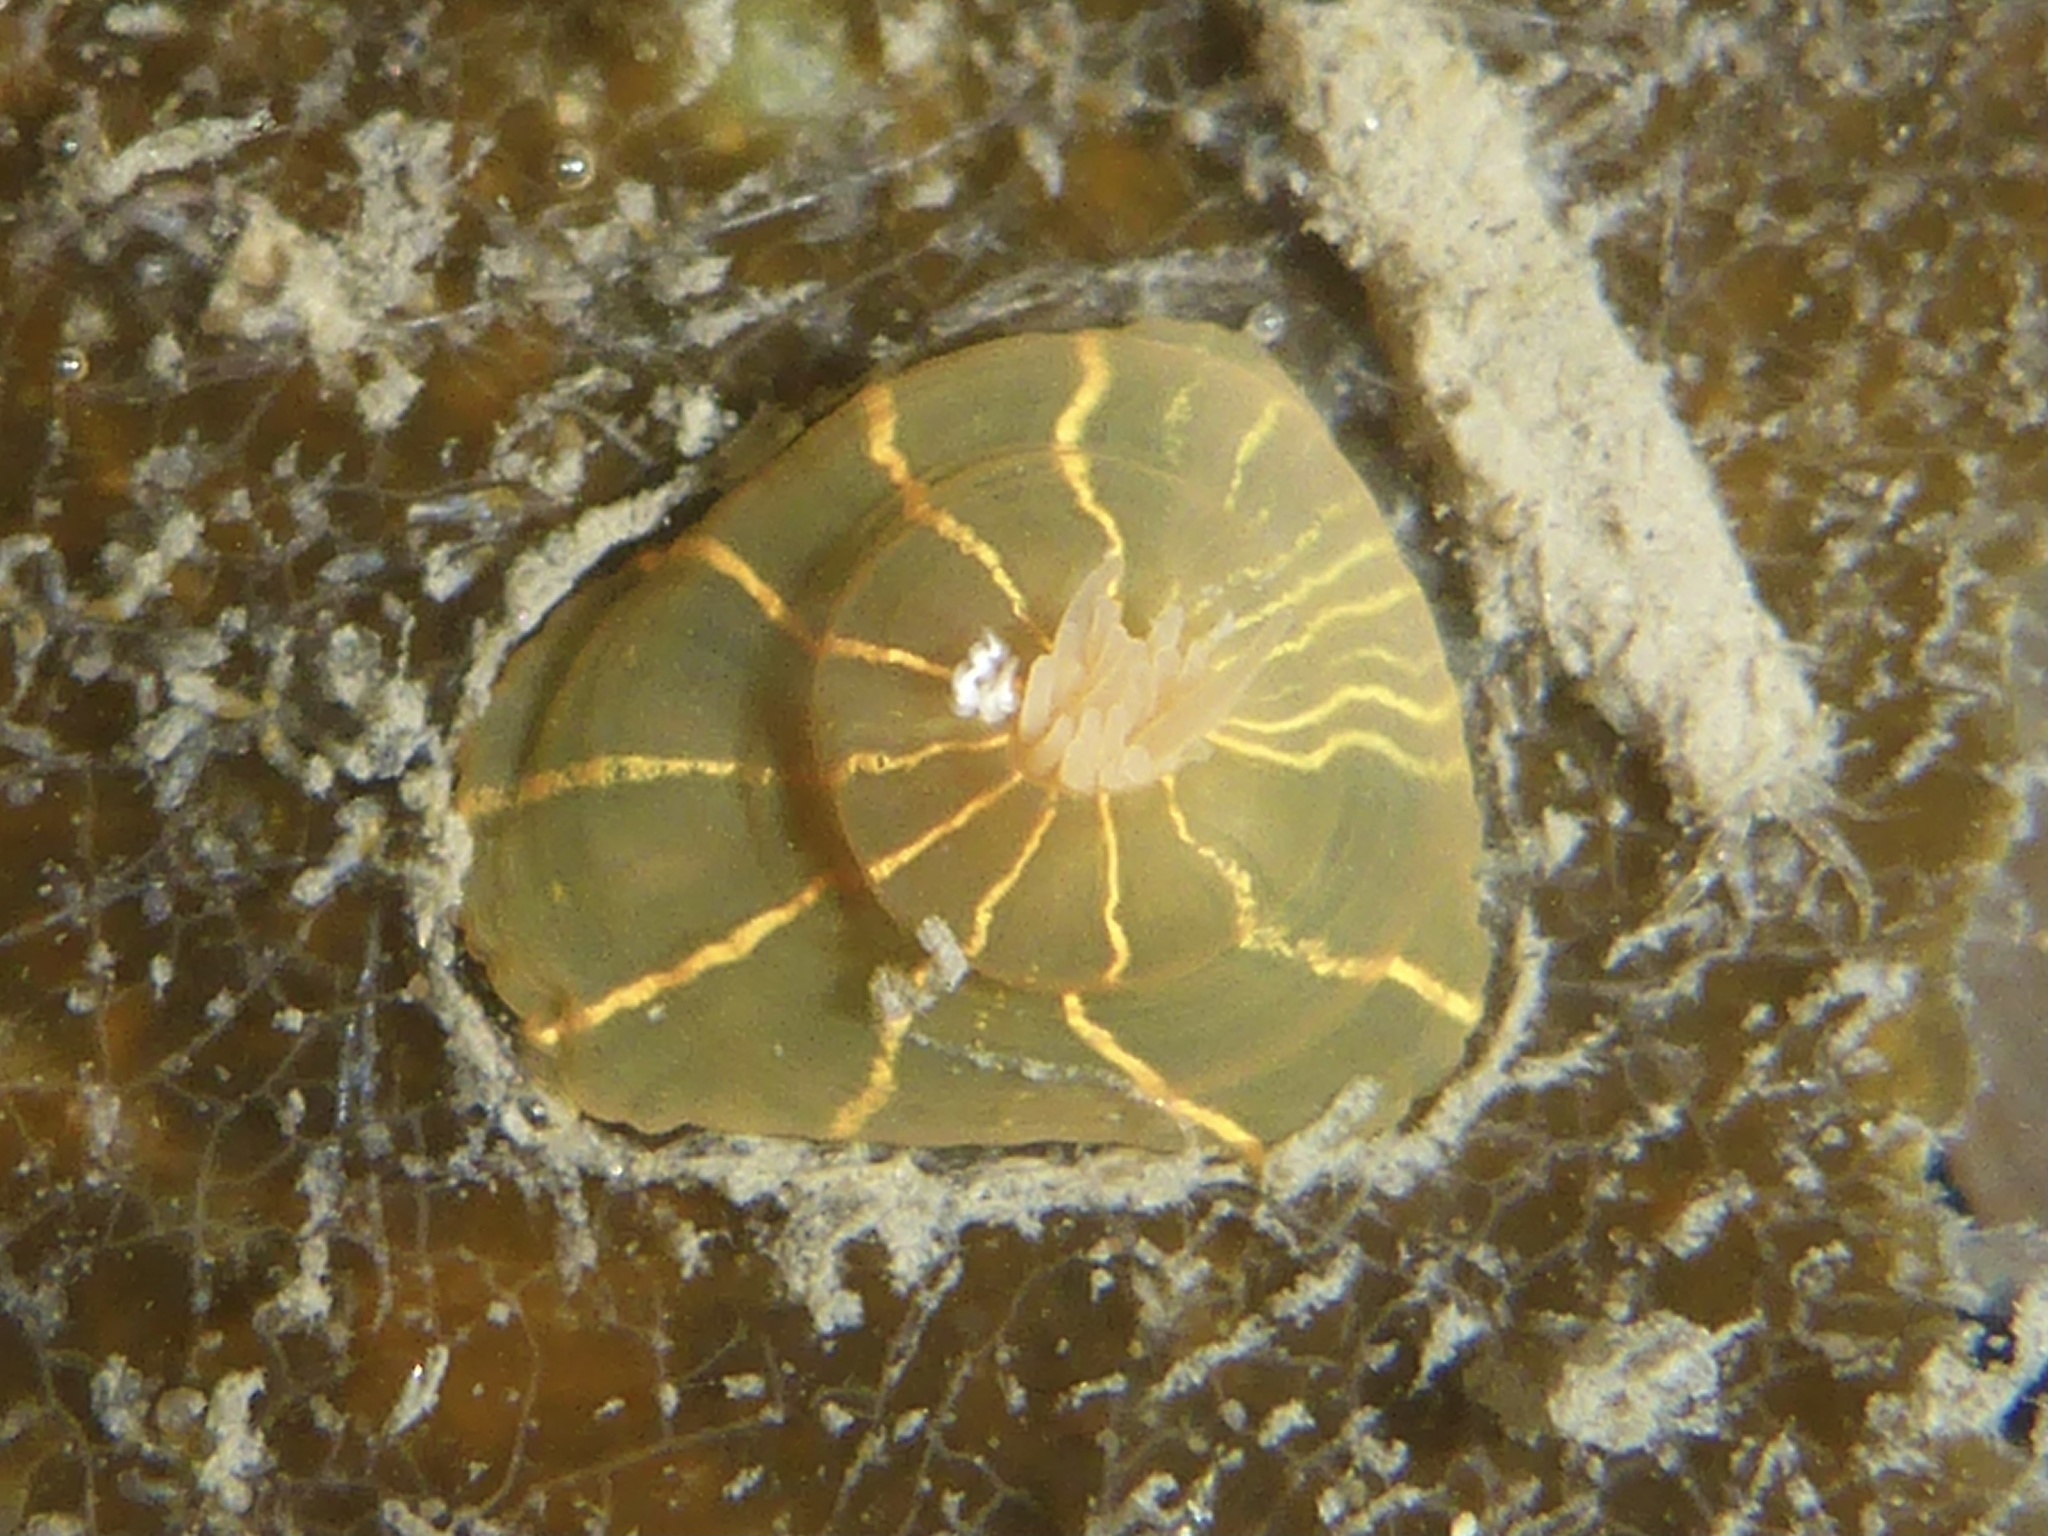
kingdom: Animalia
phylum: Cnidaria
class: Anthozoa
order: Actiniaria
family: Diadumenidae
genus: Diadumene
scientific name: Diadumene lineata
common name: Orange-striped anemone
